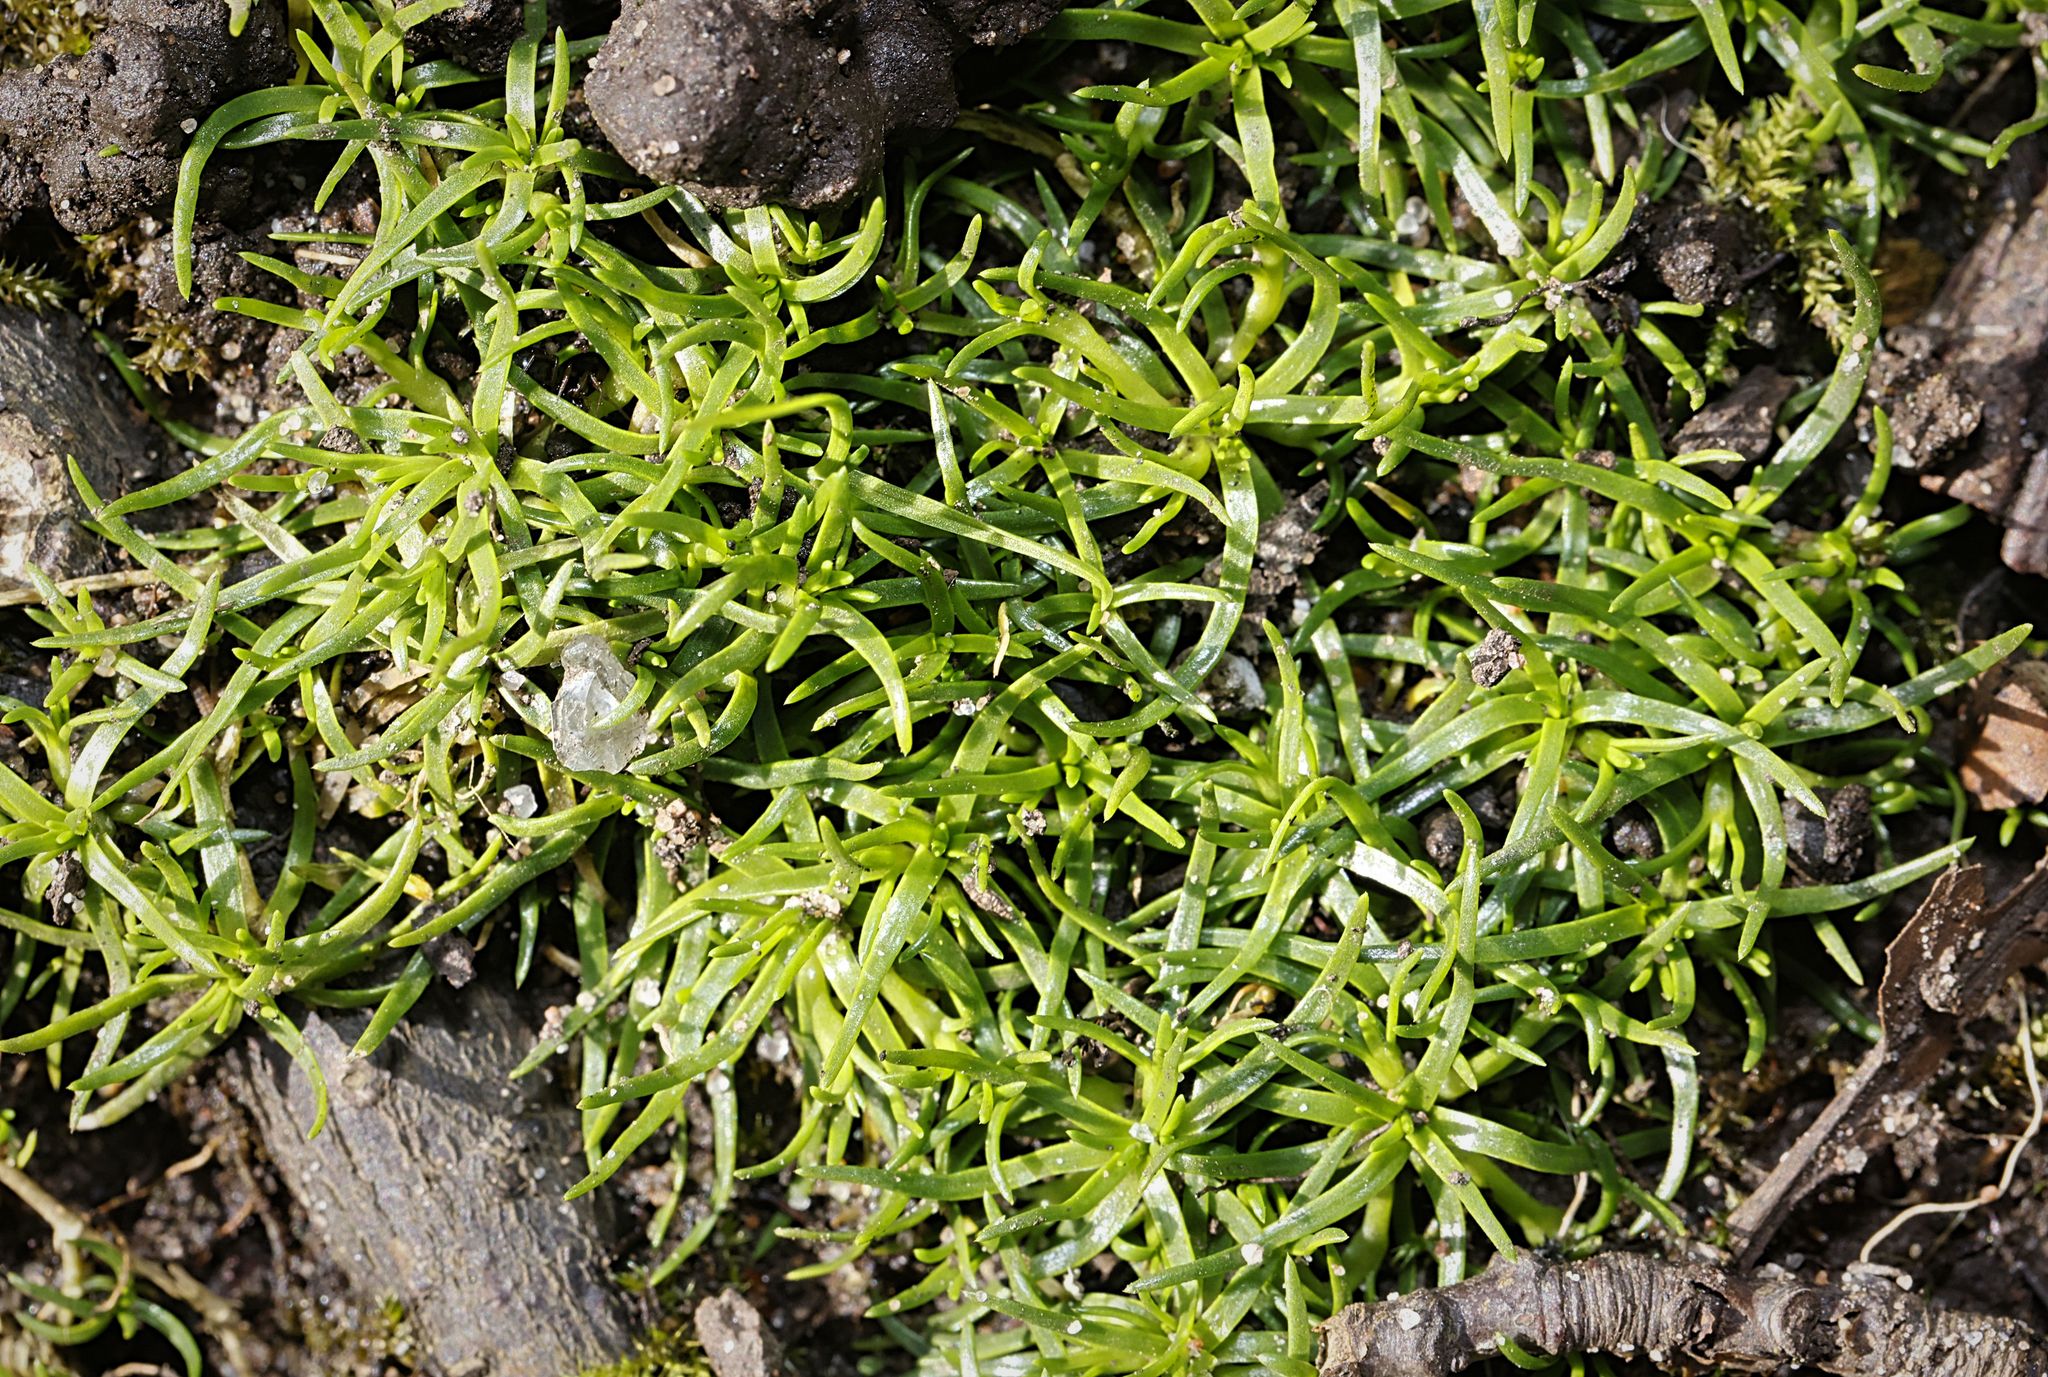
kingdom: Plantae
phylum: Tracheophyta
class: Magnoliopsida
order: Caryophyllales
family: Caryophyllaceae
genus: Sagina
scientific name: Sagina procumbens
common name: Procumbent pearlwort
